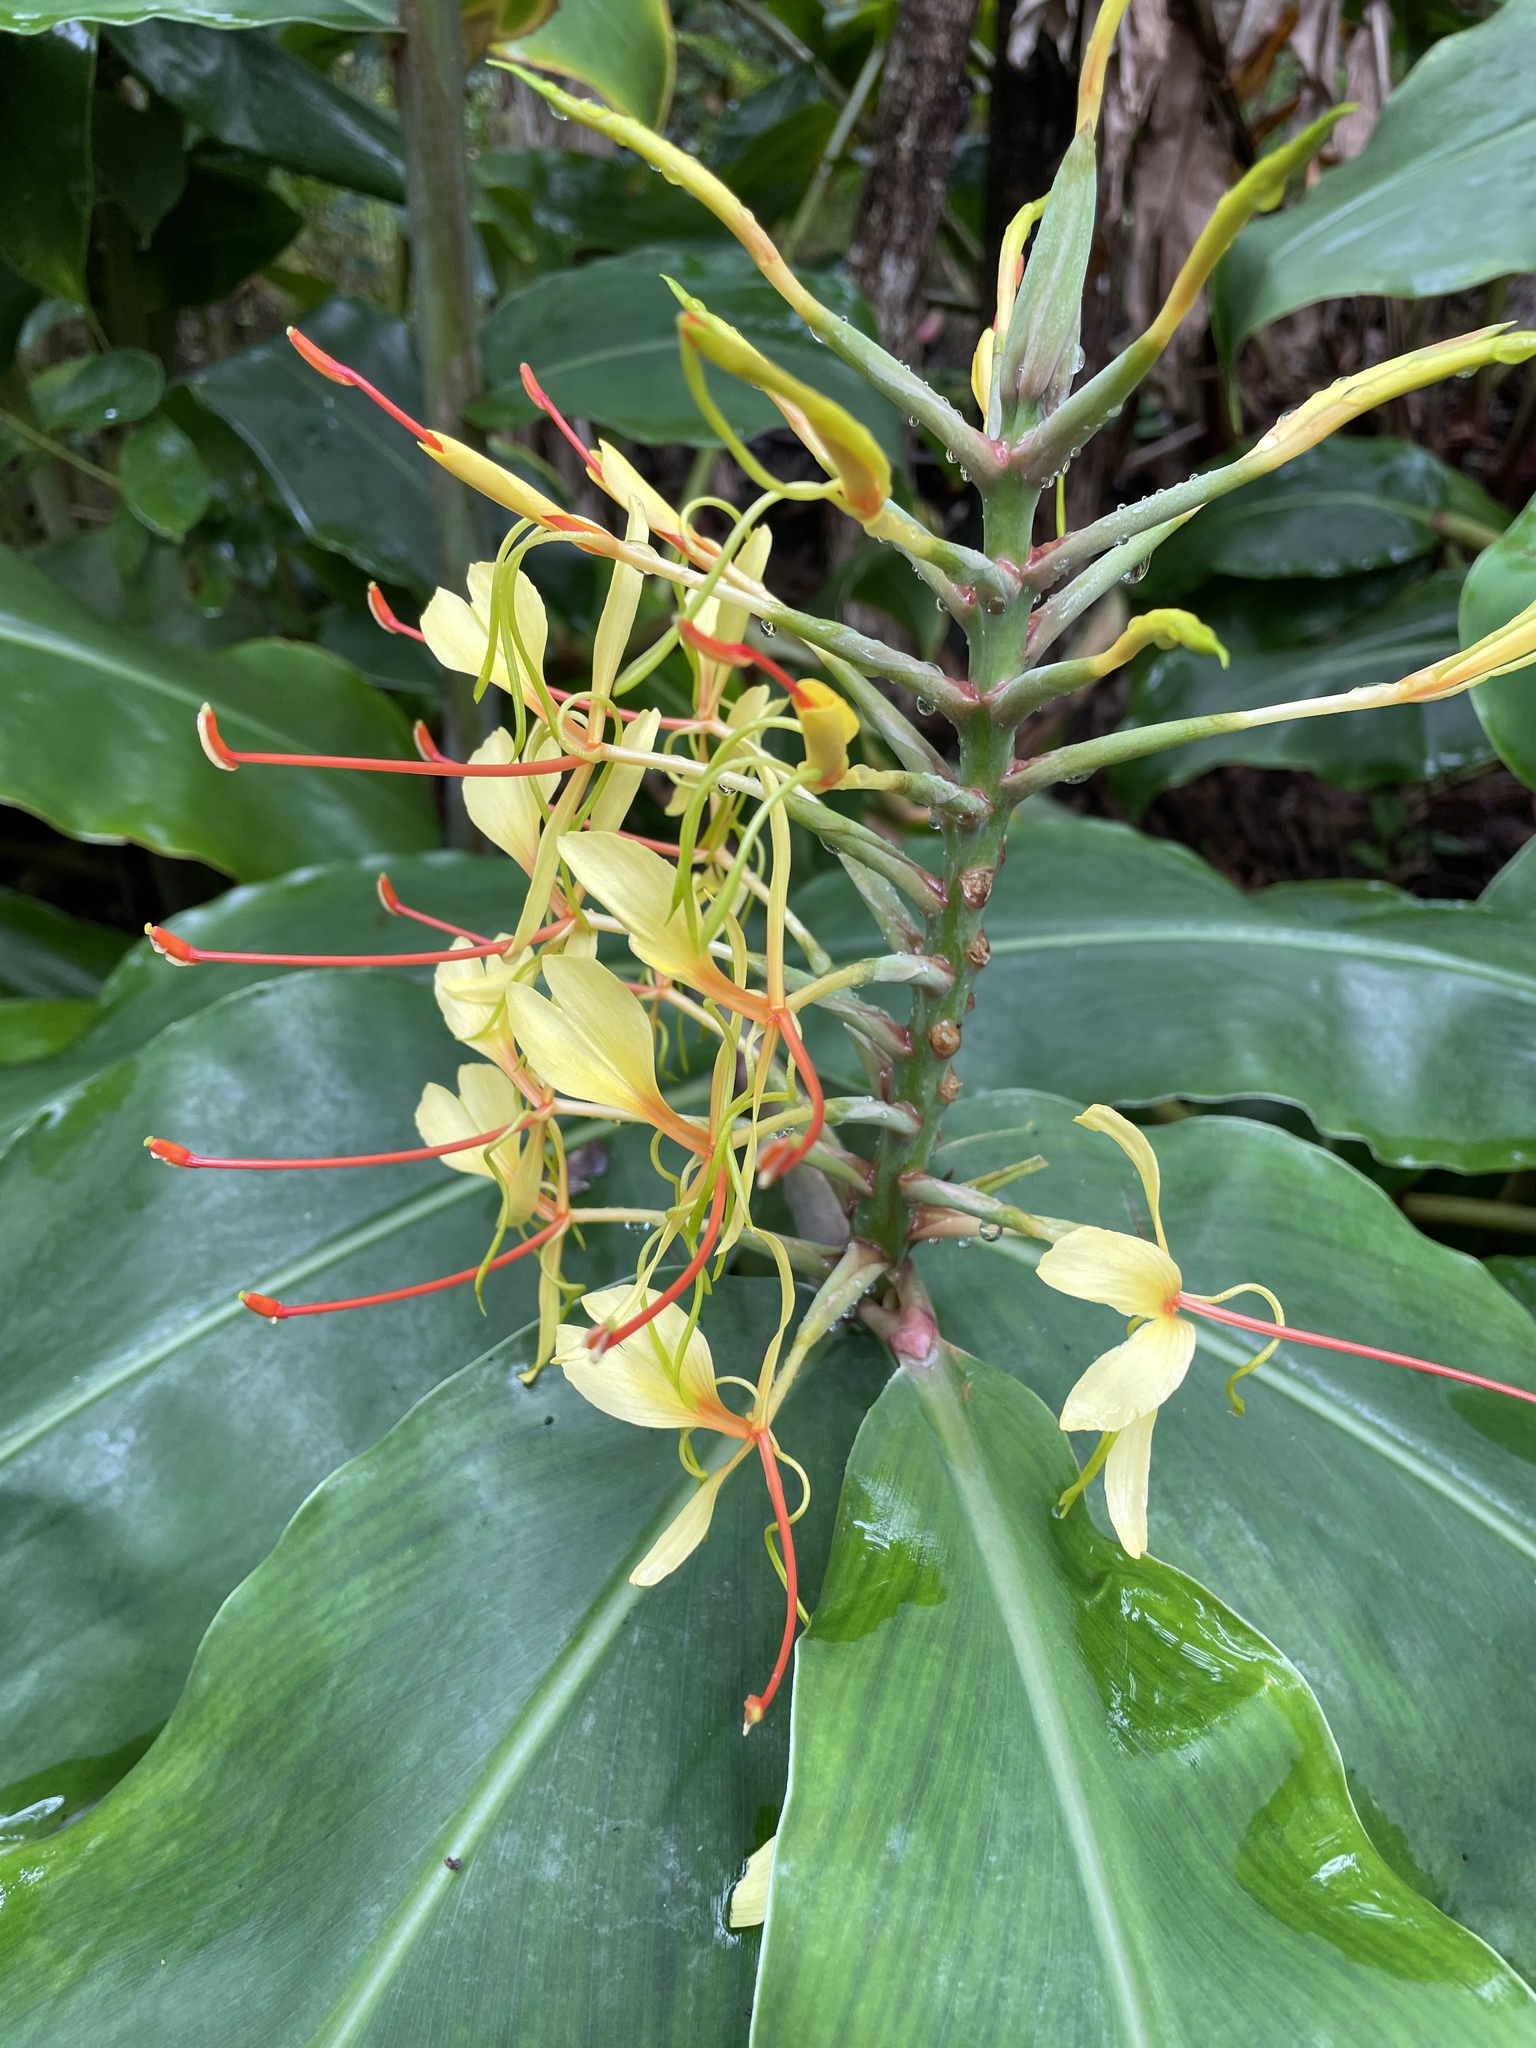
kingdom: Plantae
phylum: Tracheophyta
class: Liliopsida
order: Zingiberales
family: Zingiberaceae
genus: Hedychium
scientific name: Hedychium gardnerianum
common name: Himalayan ginger
